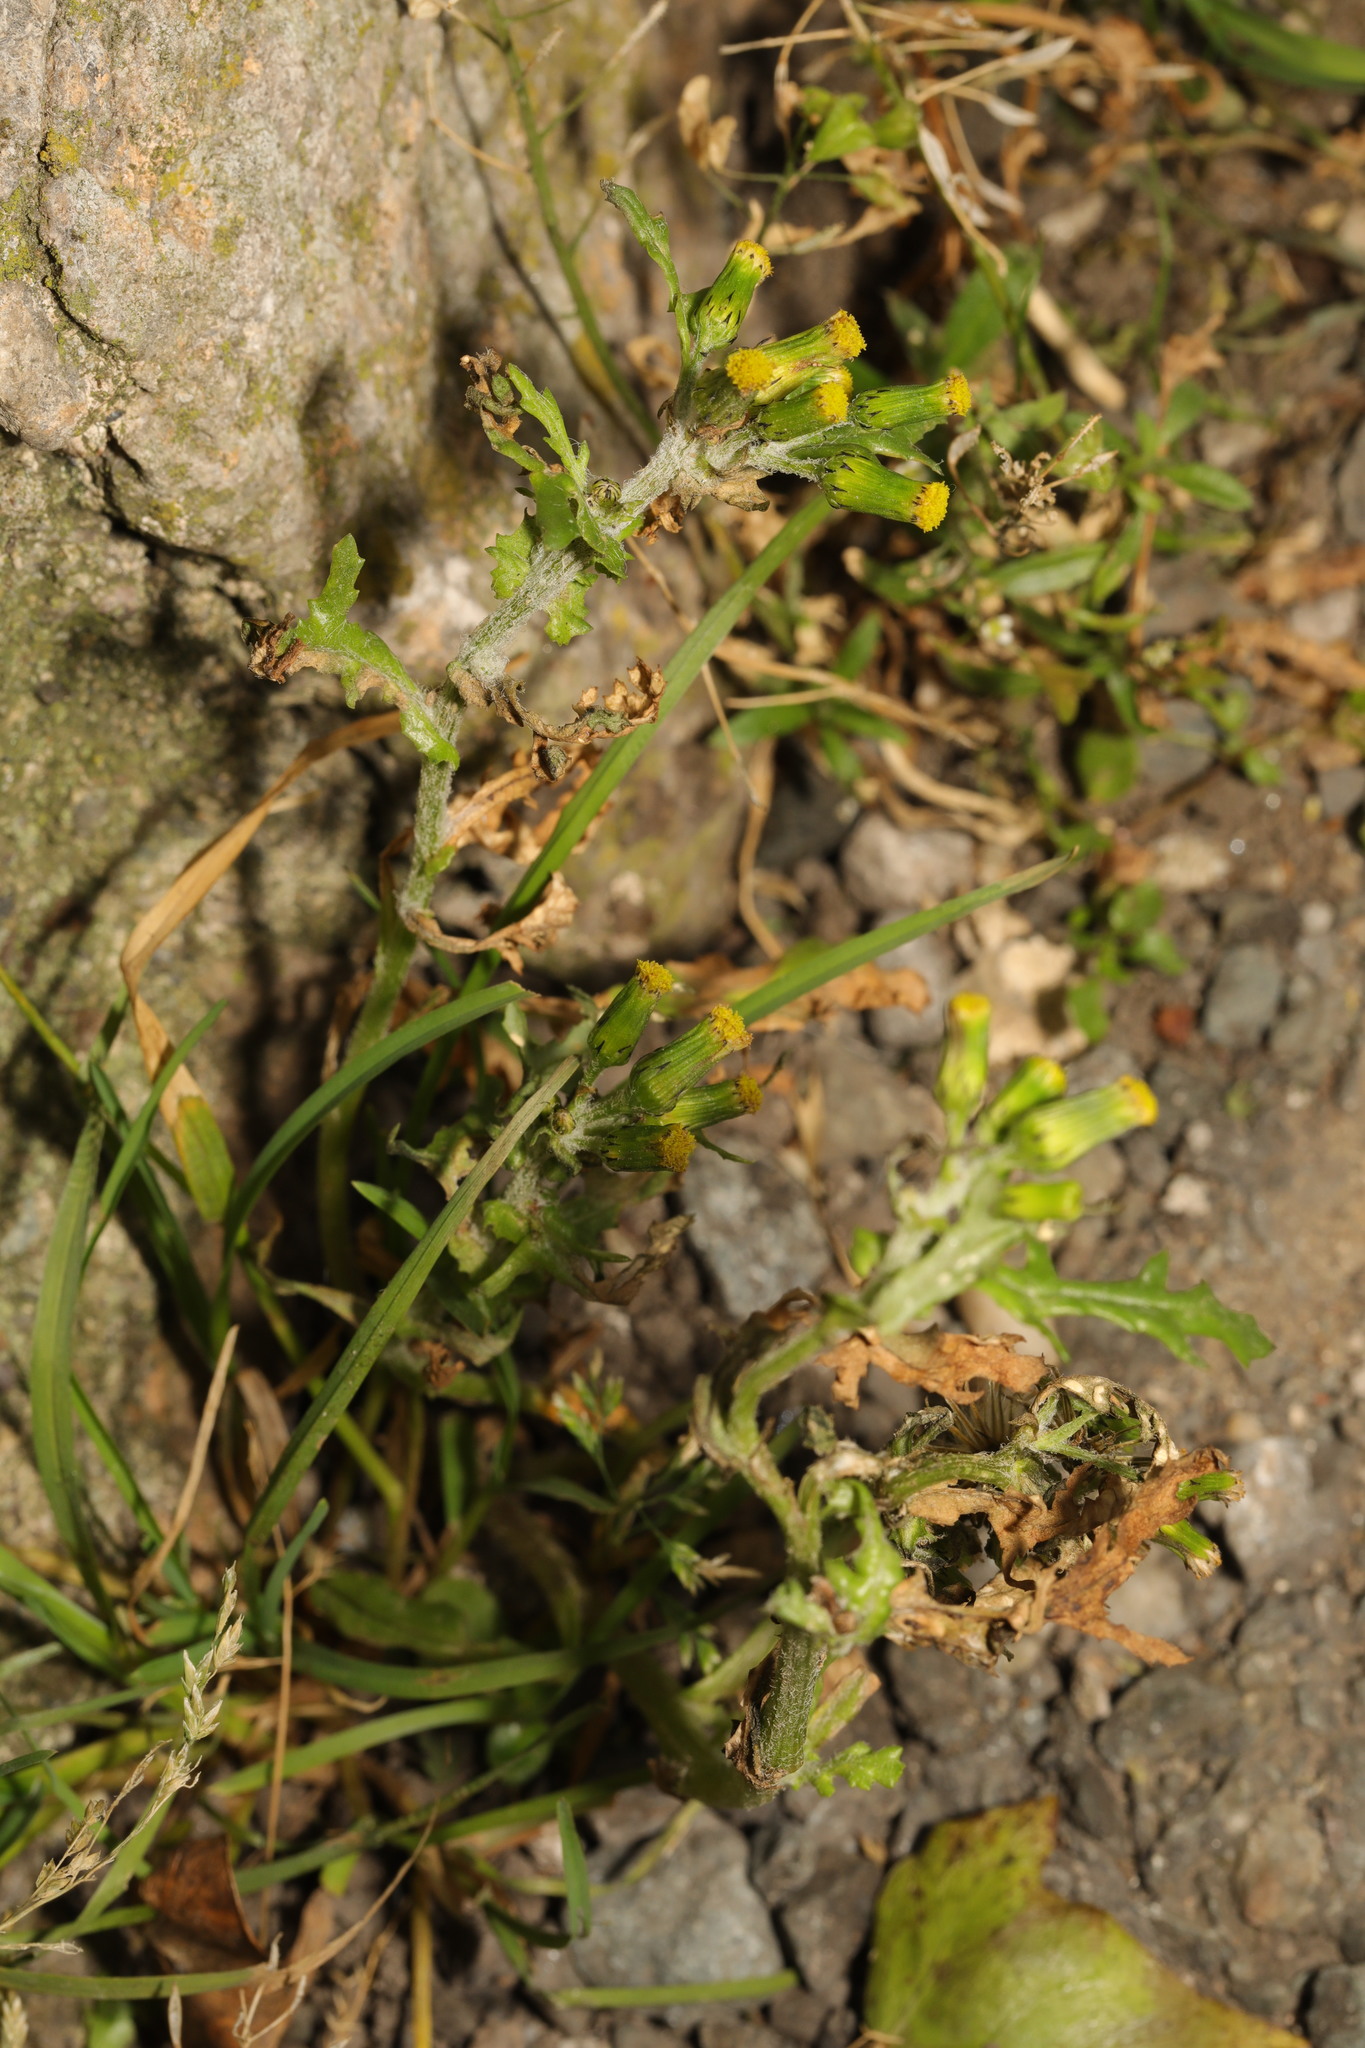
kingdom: Plantae
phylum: Tracheophyta
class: Magnoliopsida
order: Asterales
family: Asteraceae
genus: Senecio
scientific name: Senecio vulgaris
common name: Old-man-in-the-spring
